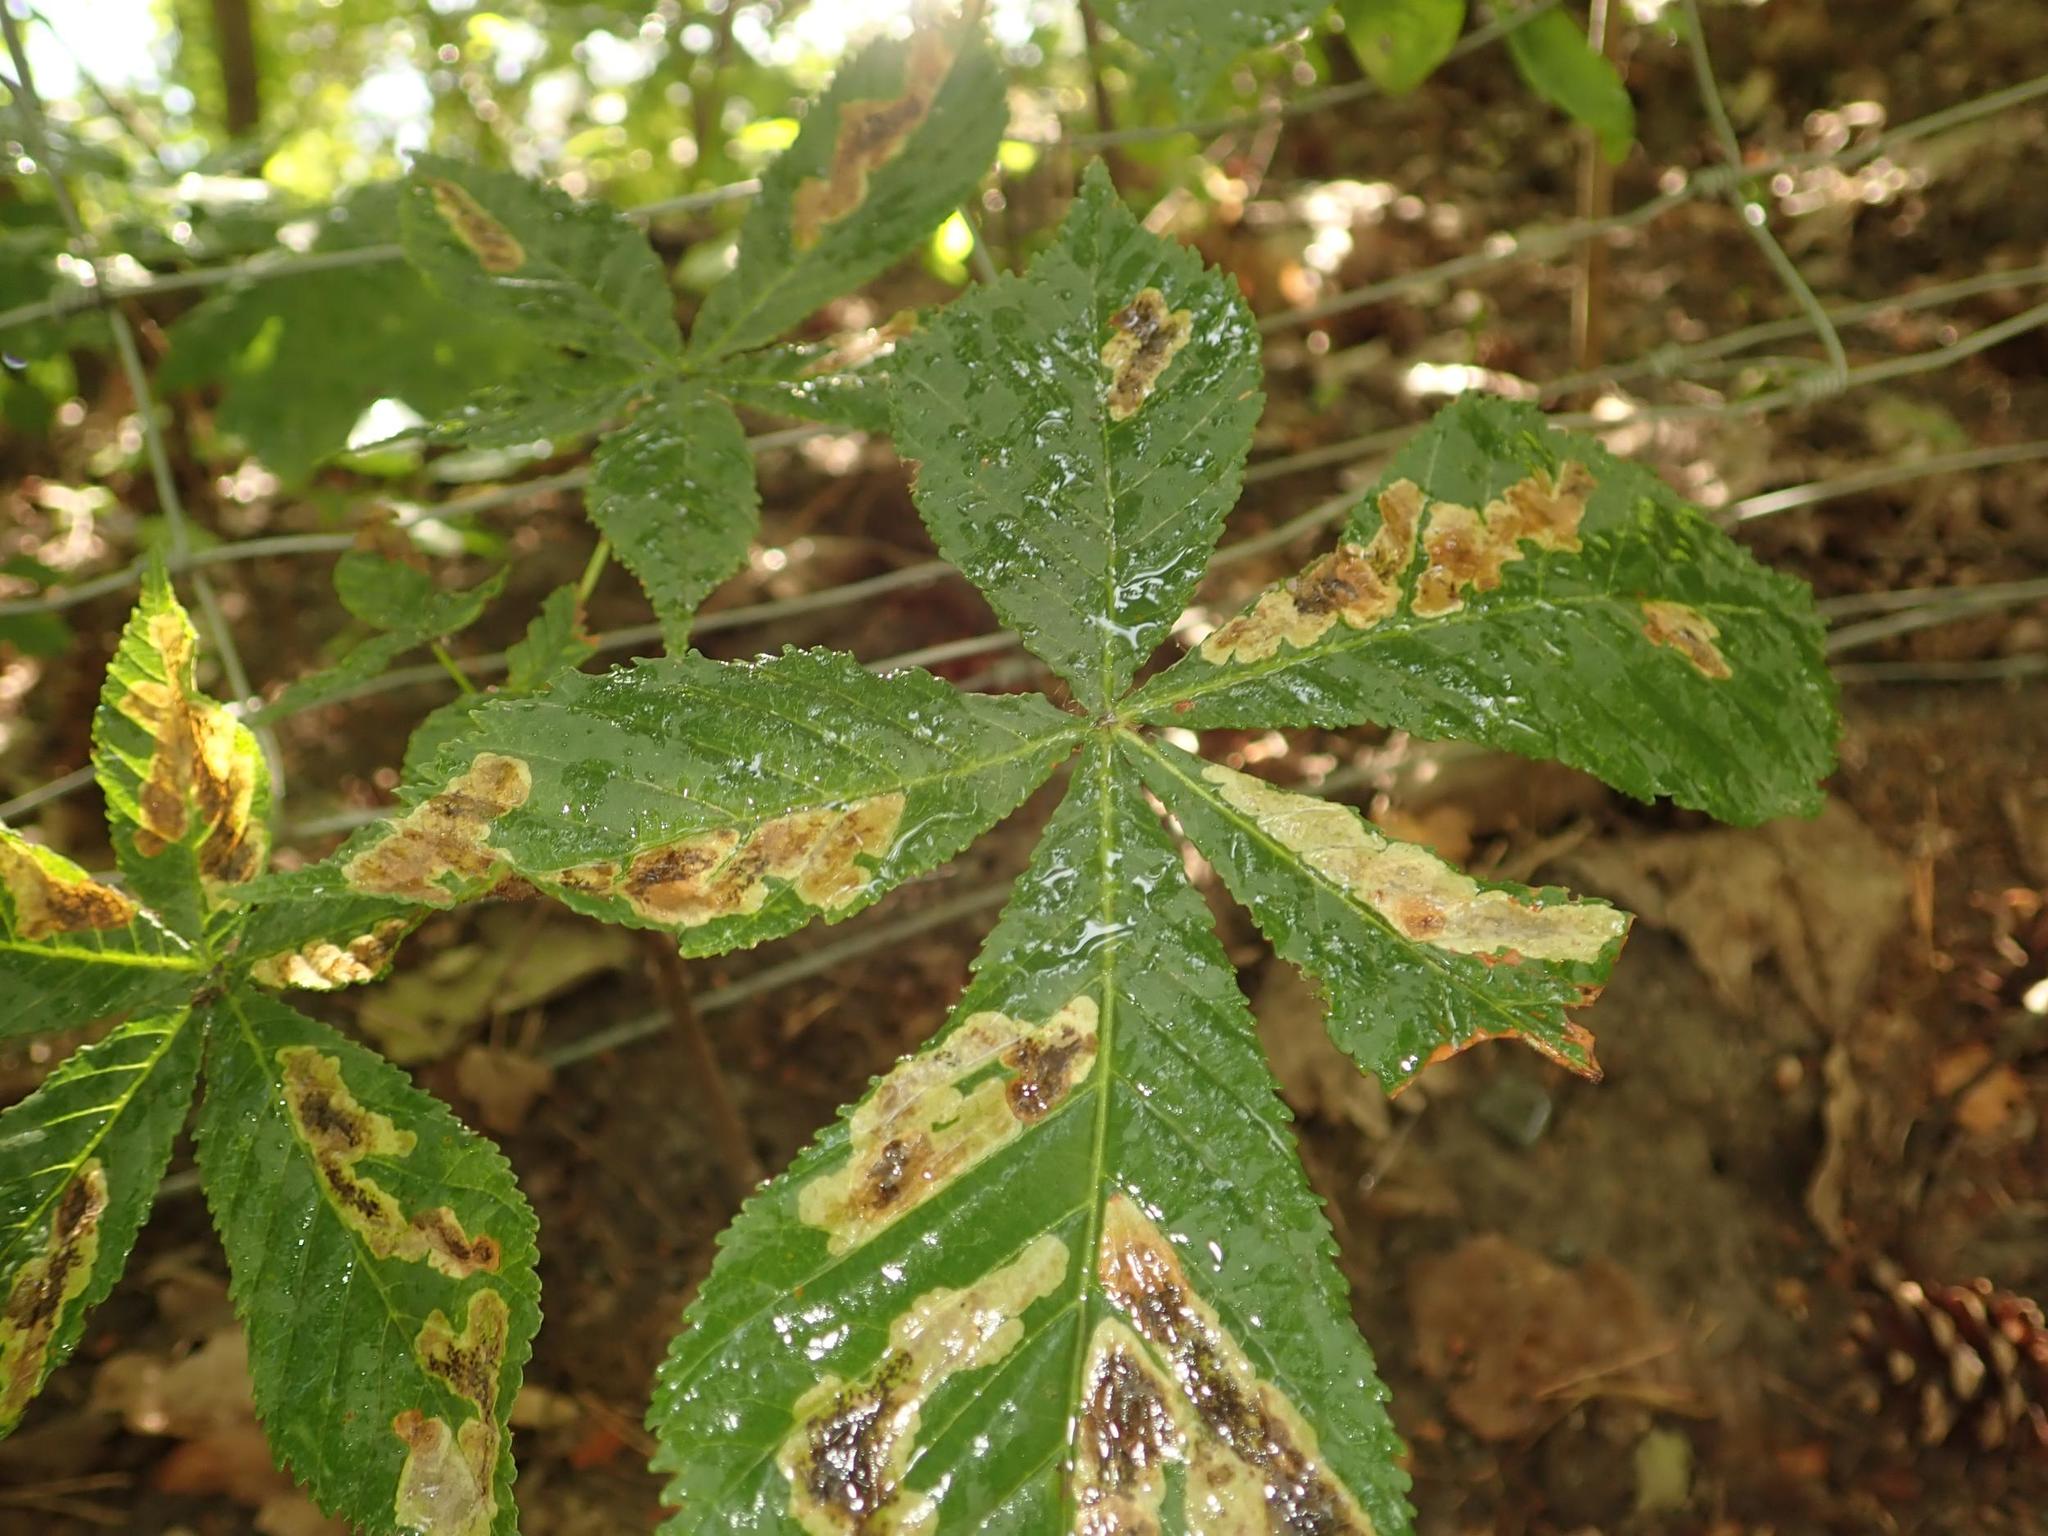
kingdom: Plantae
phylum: Tracheophyta
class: Magnoliopsida
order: Sapindales
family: Sapindaceae
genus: Aesculus
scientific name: Aesculus hippocastanum
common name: Horse-chestnut
